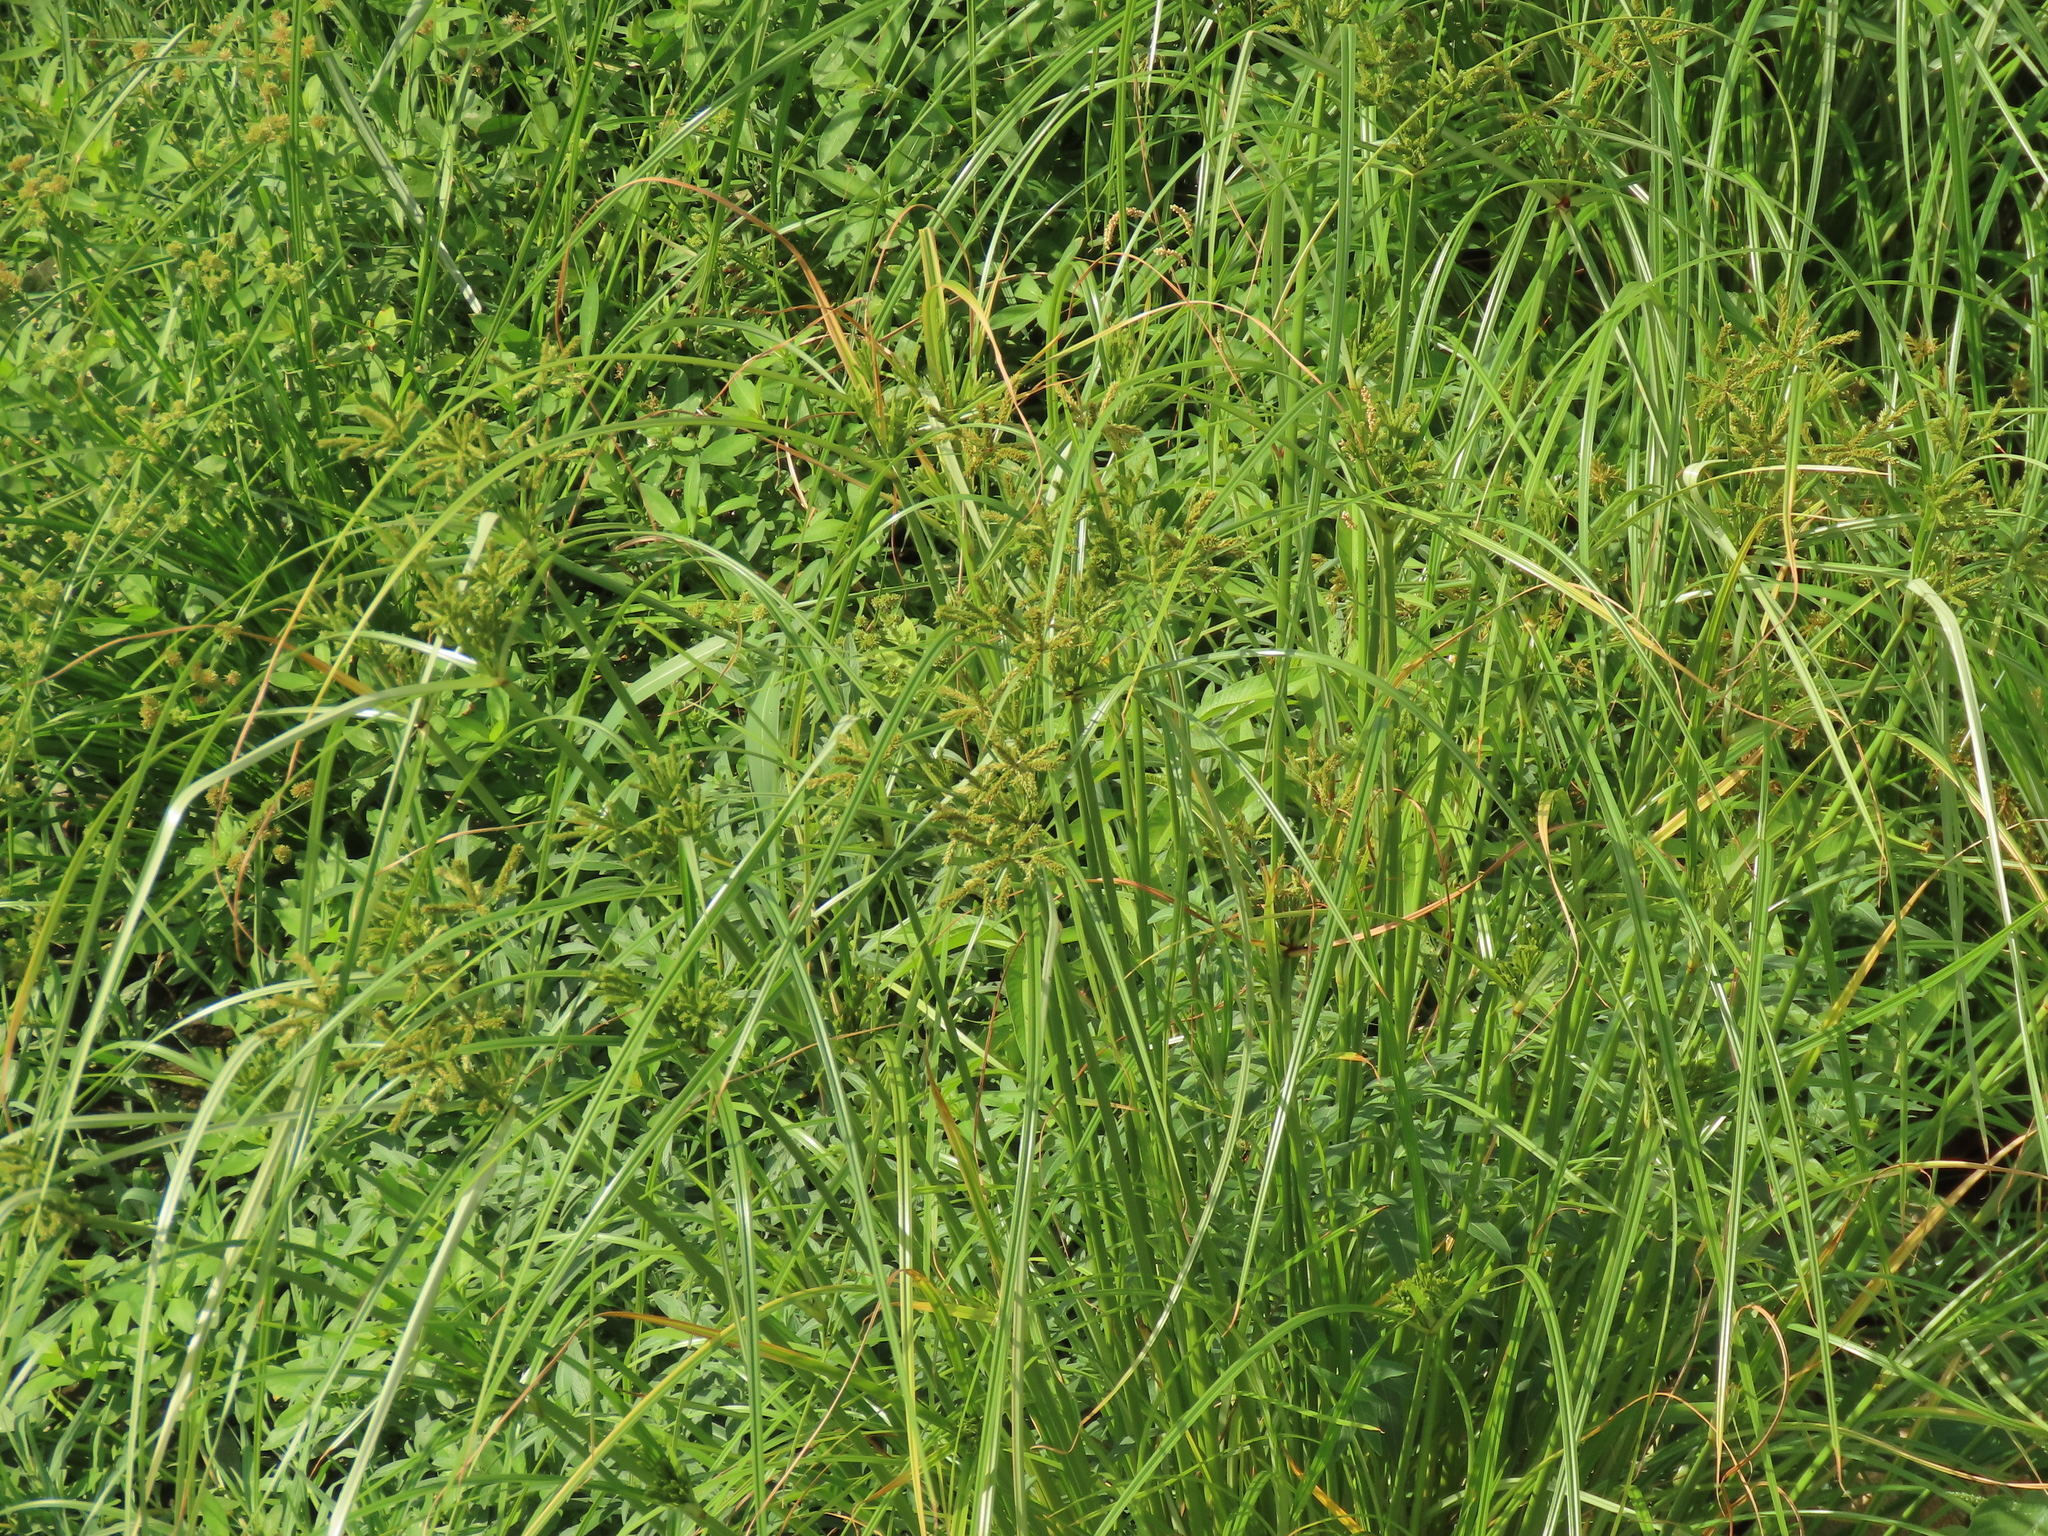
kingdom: Plantae
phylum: Tracheophyta
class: Liliopsida
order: Poales
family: Cyperaceae
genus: Cyperus
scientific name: Cyperus imbricatus
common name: Shingle flatsedge
